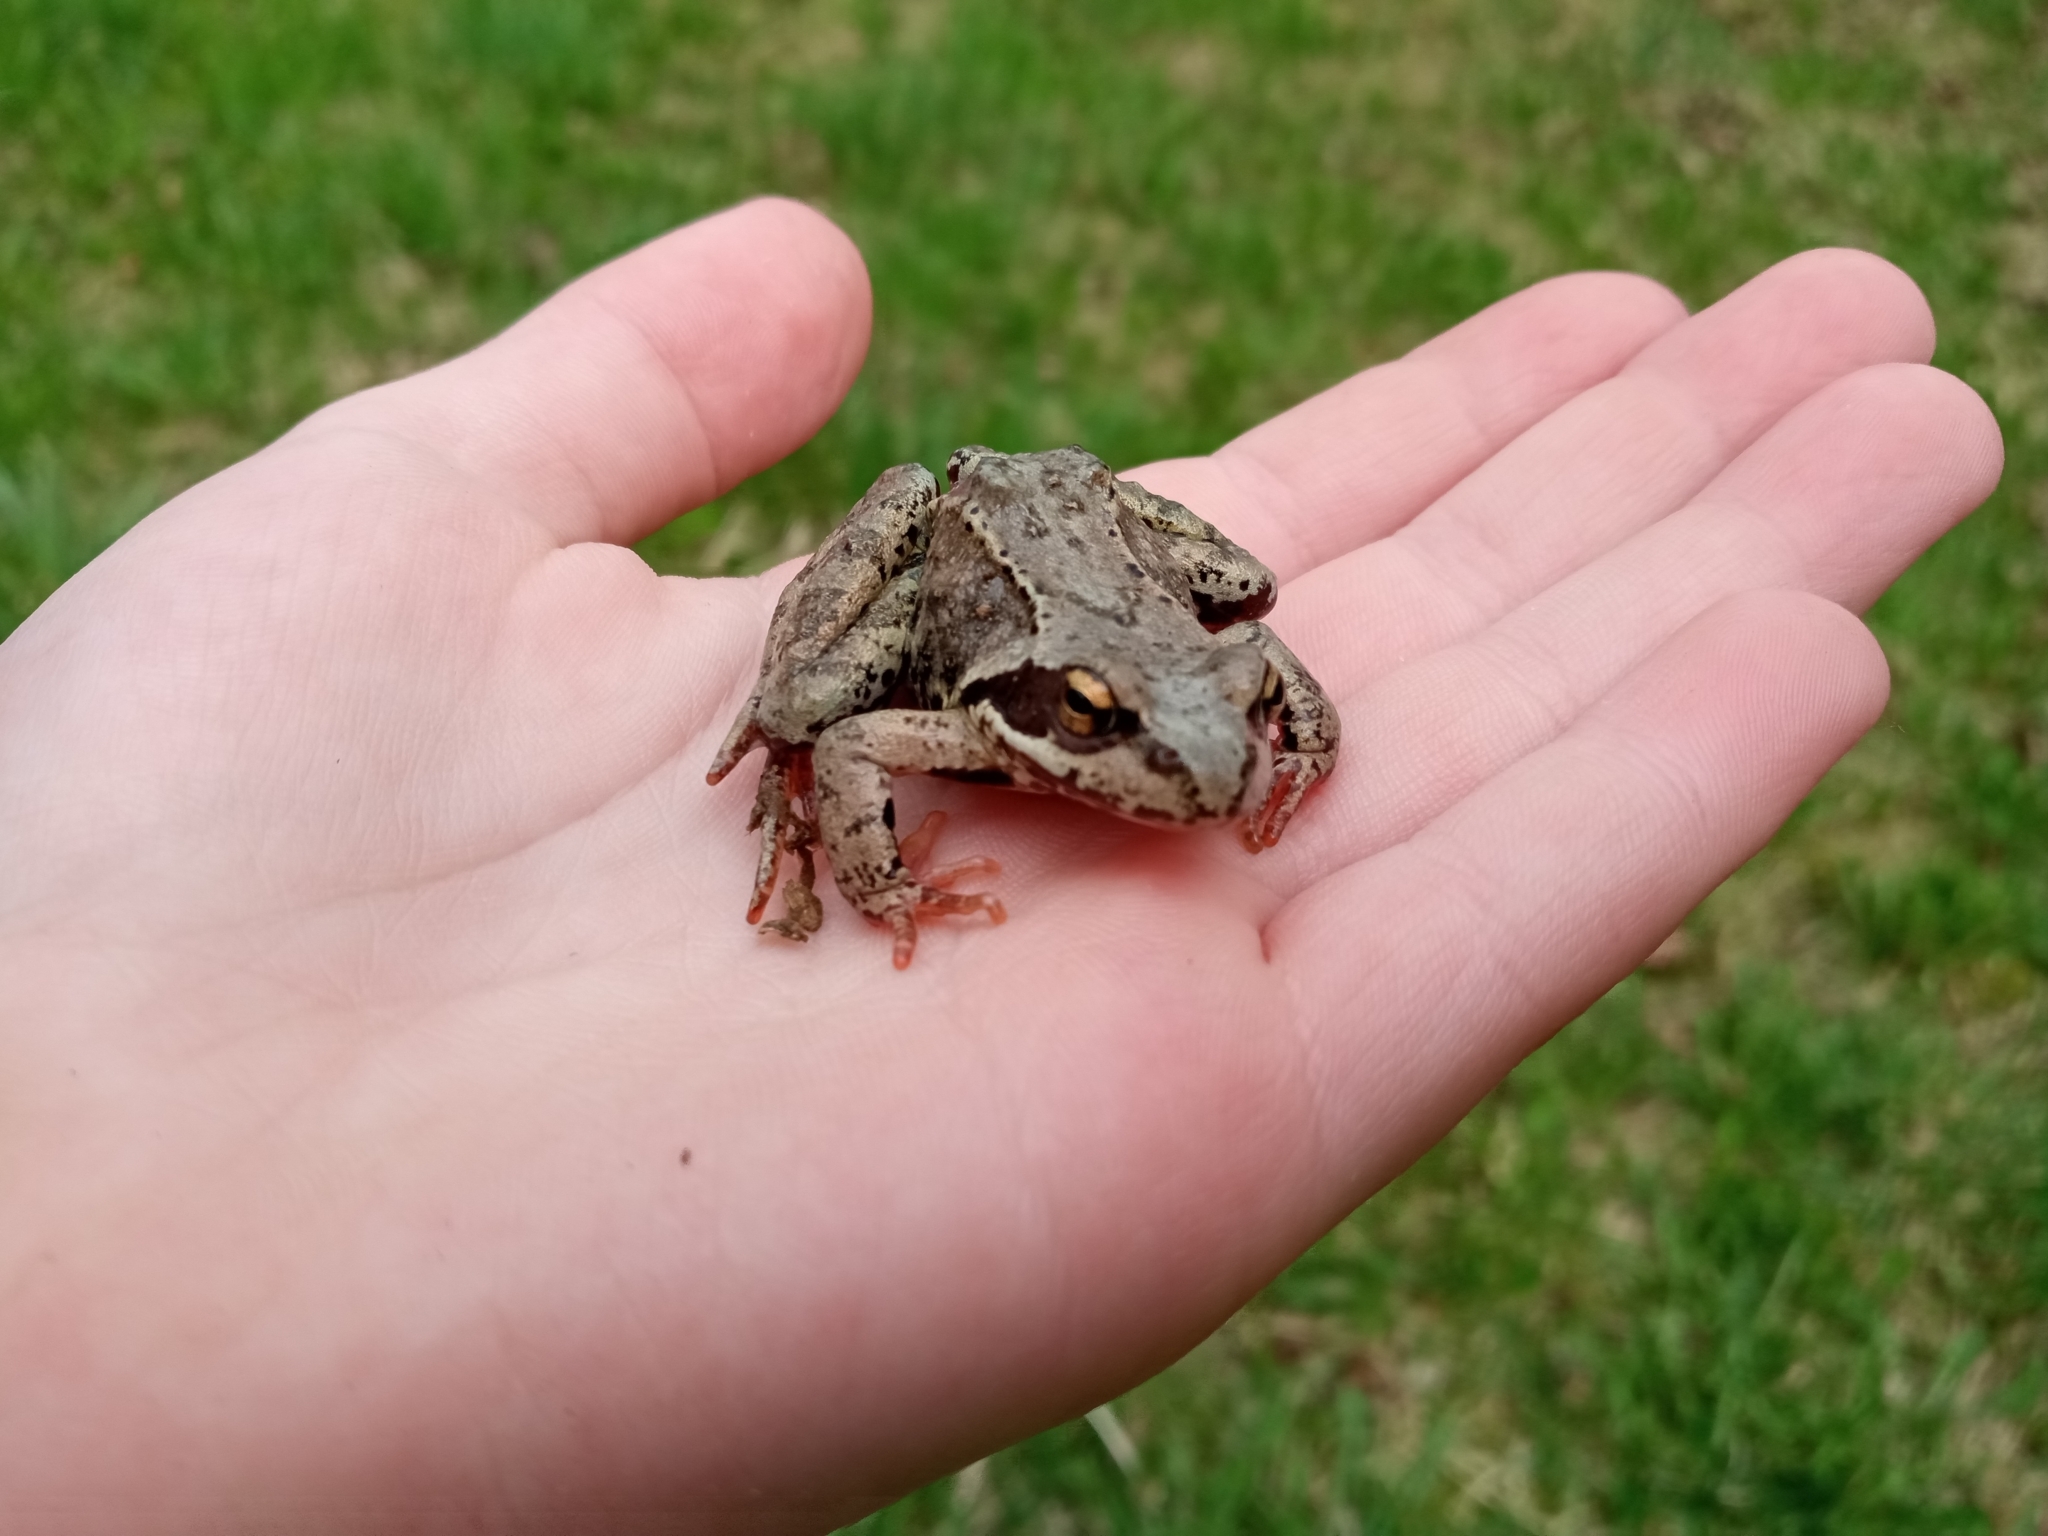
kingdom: Animalia
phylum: Chordata
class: Amphibia
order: Anura
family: Ranidae
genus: Rana
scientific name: Rana temporaria
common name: Common frog
